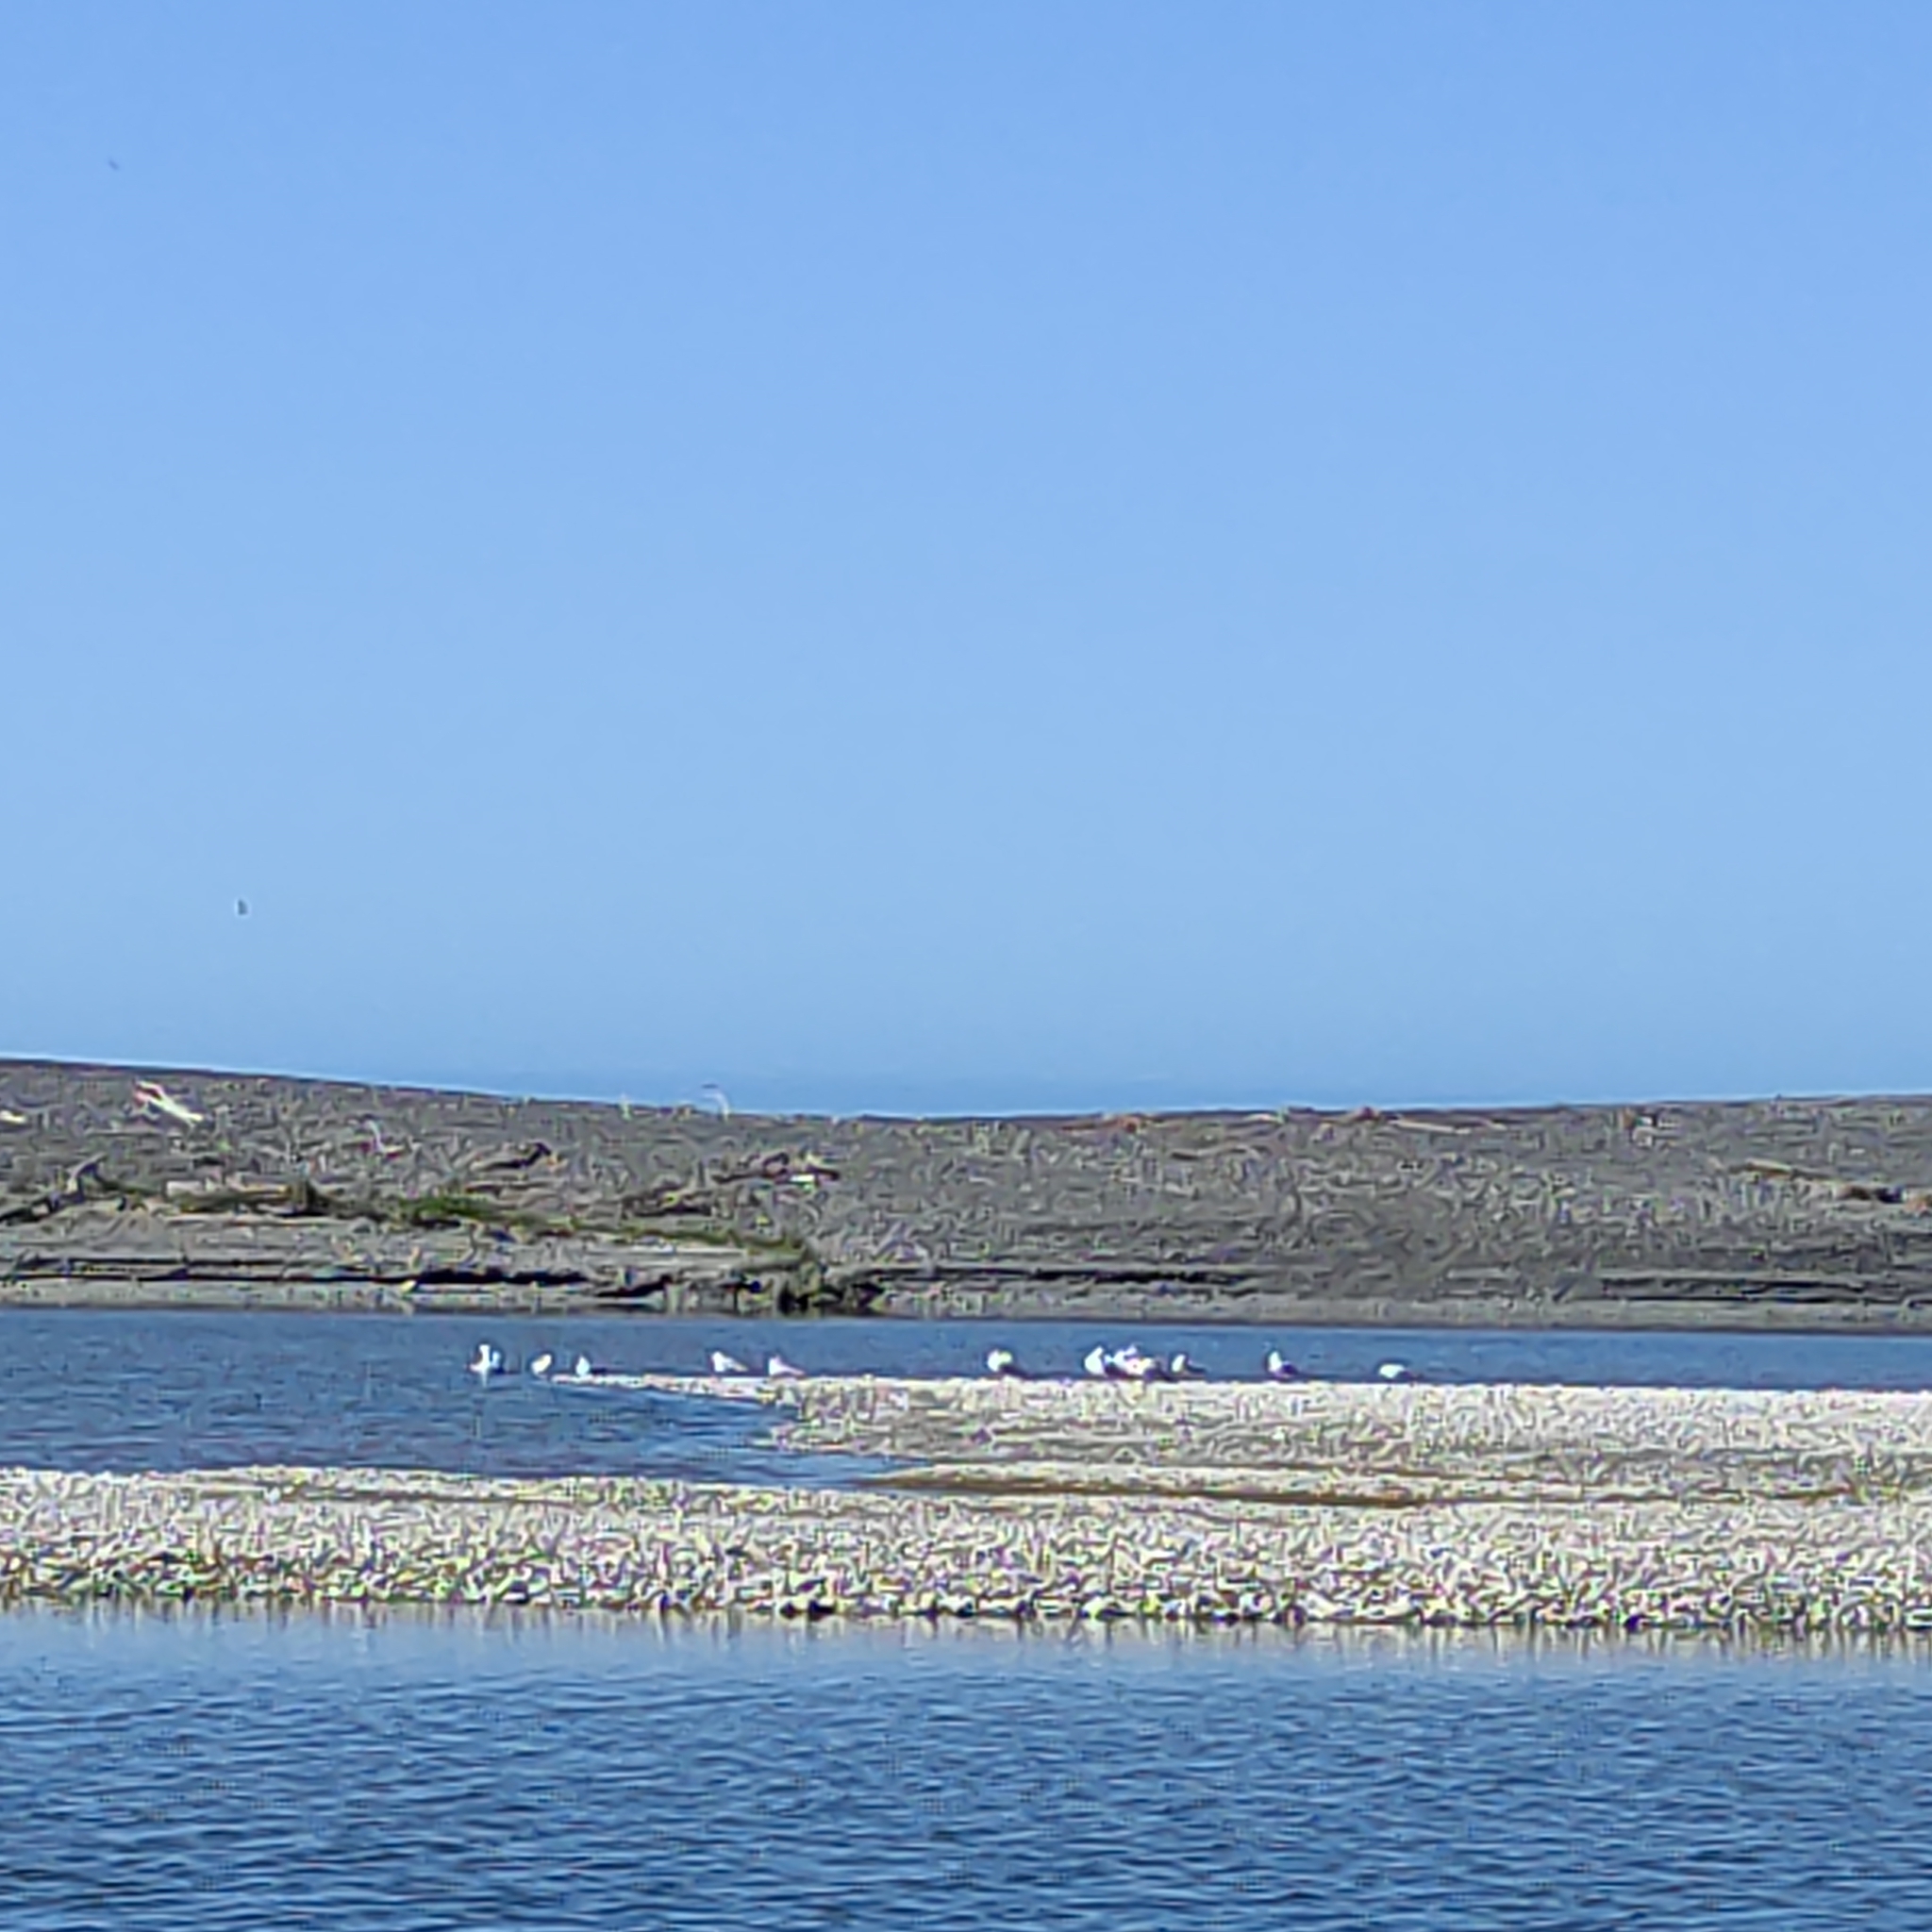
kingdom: Animalia
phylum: Chordata
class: Aves
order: Charadriiformes
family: Laridae
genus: Larus
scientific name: Larus dominicanus
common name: Kelp gull
